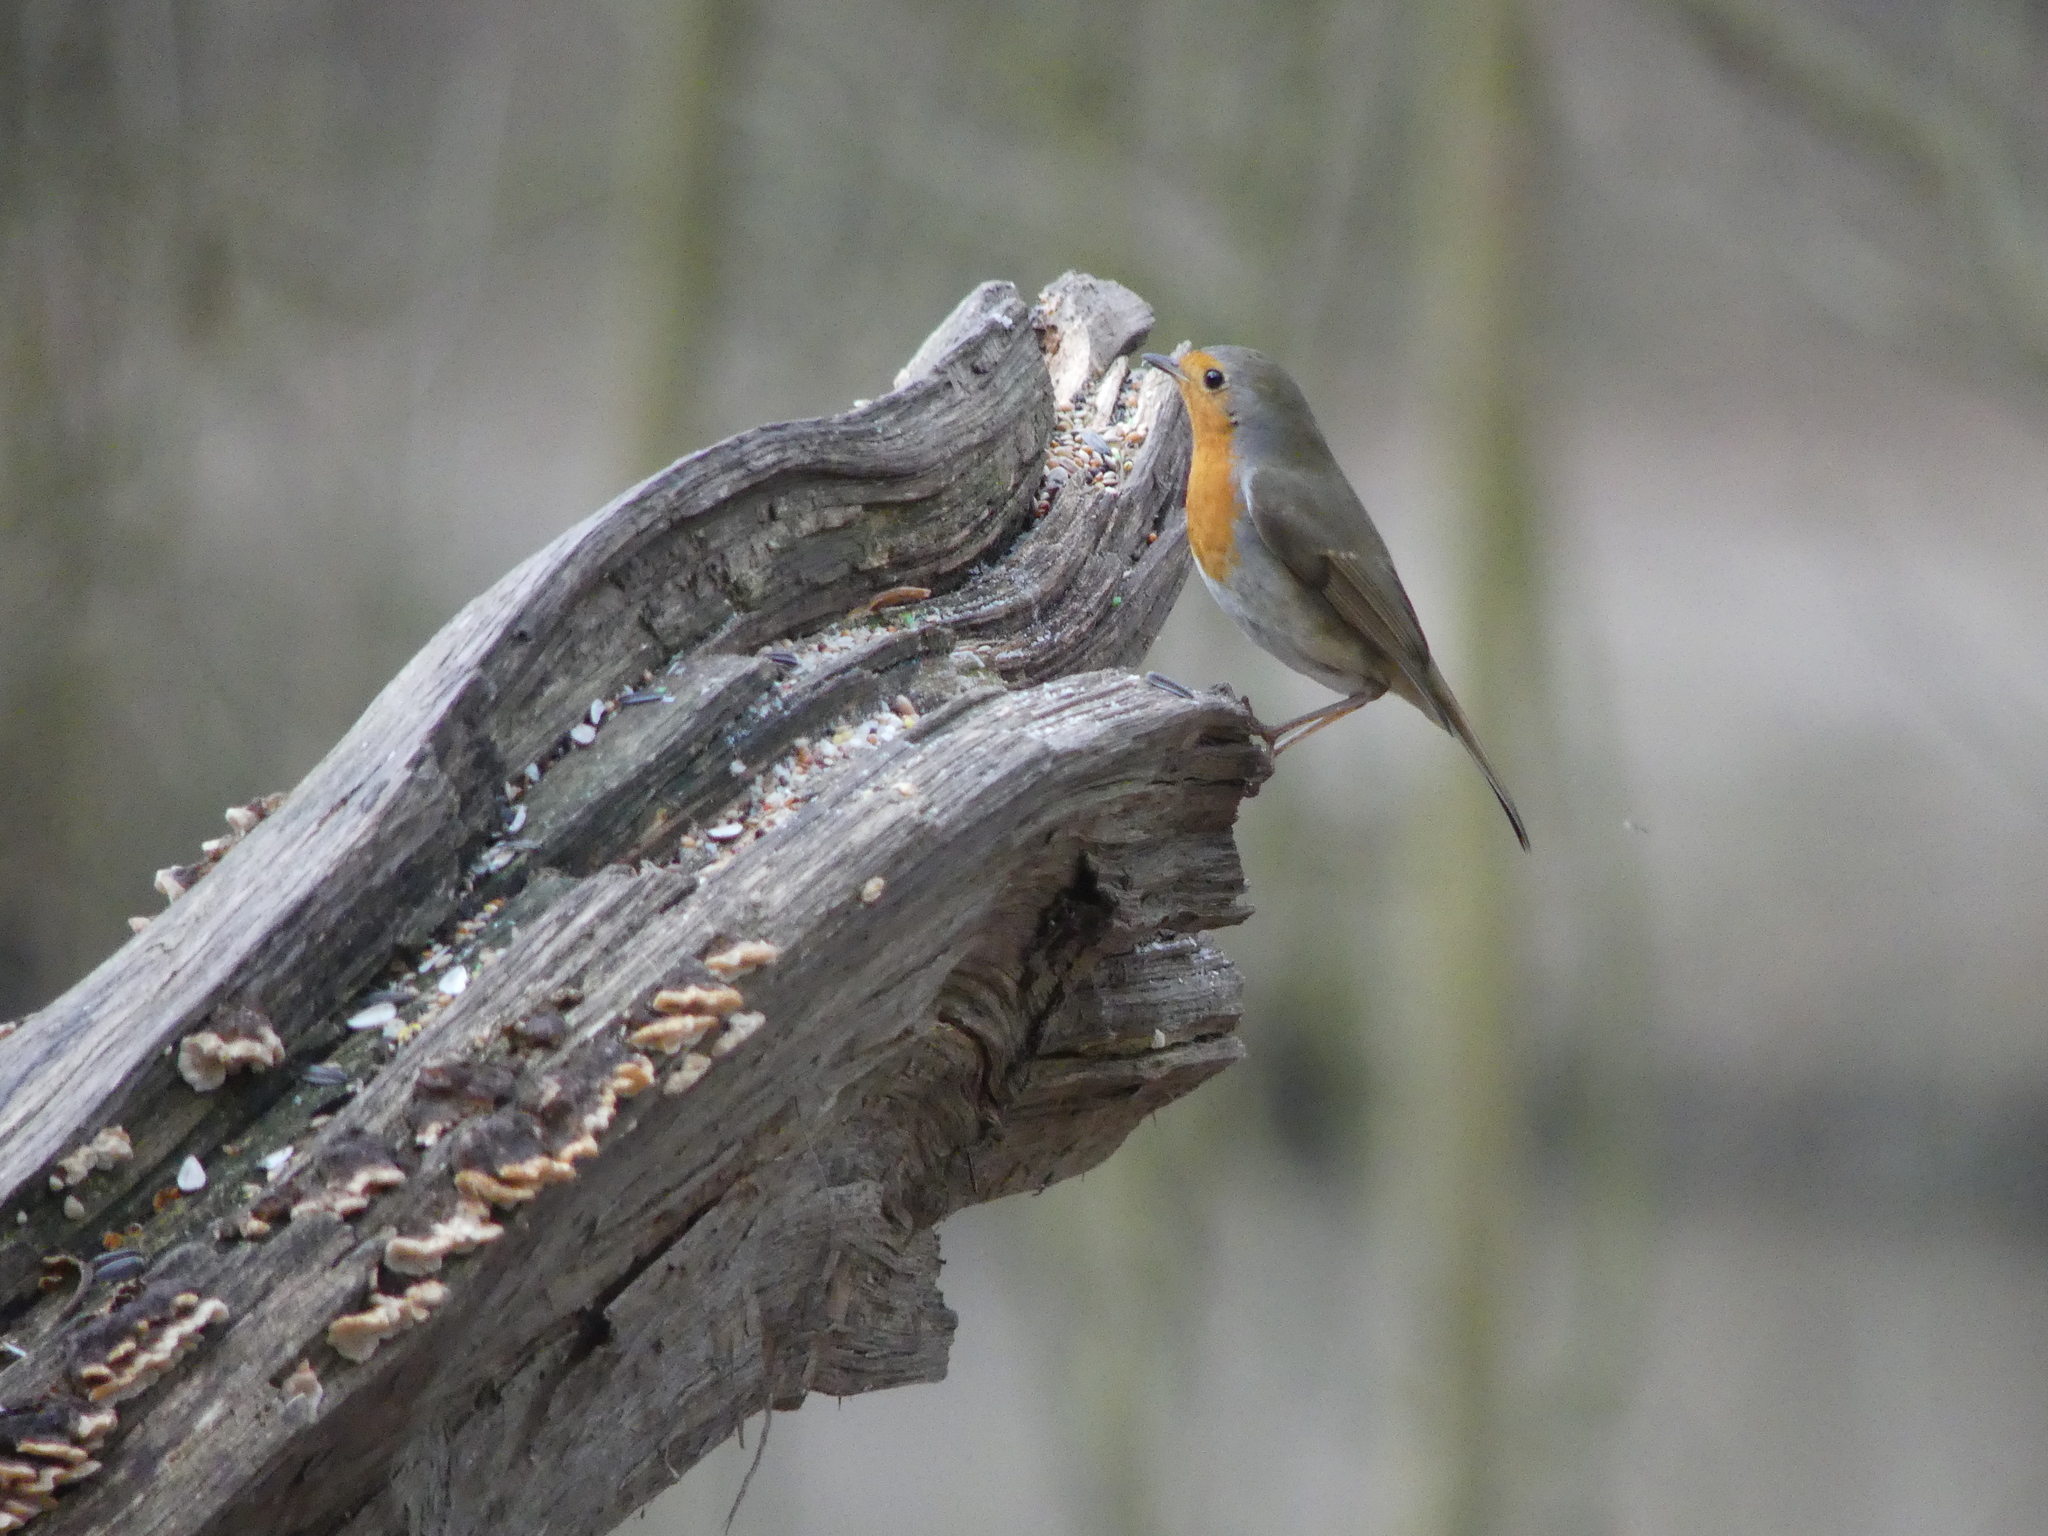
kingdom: Animalia
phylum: Chordata
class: Aves
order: Passeriformes
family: Muscicapidae
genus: Erithacus
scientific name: Erithacus rubecula
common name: European robin
